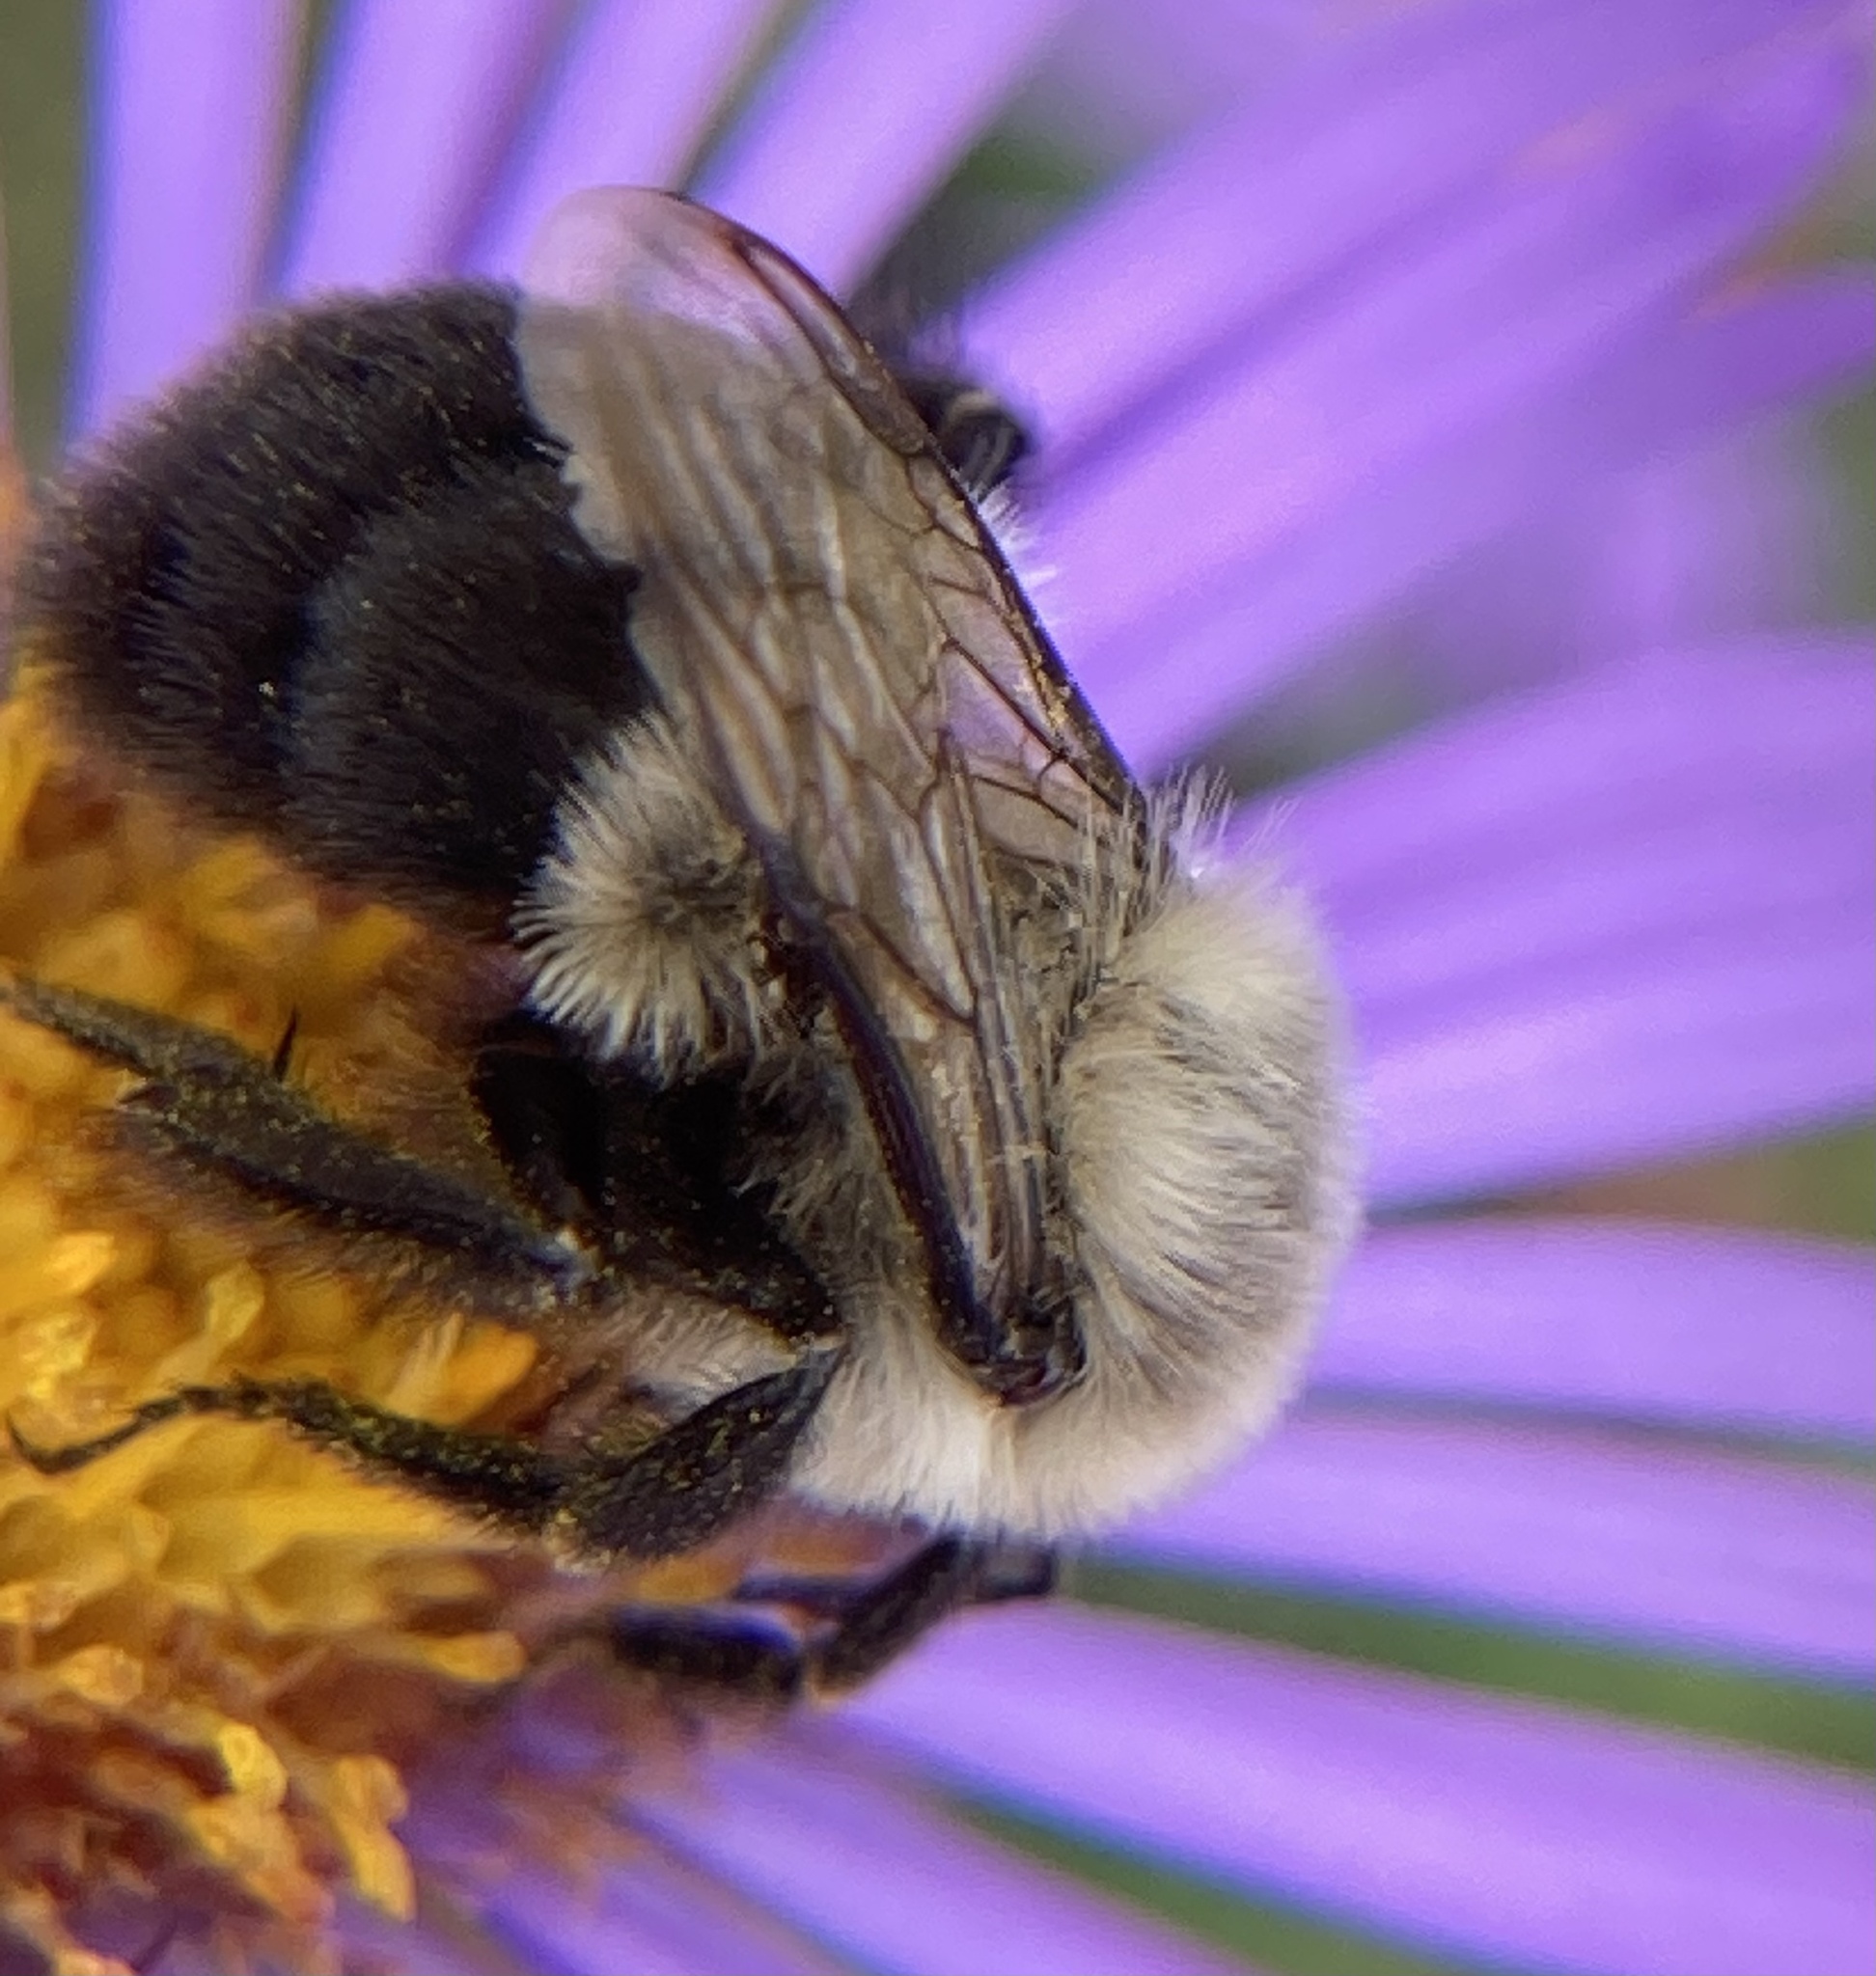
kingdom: Animalia
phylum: Arthropoda
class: Insecta
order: Hymenoptera
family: Apidae
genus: Bombus
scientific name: Bombus impatiens
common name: Common eastern bumble bee
